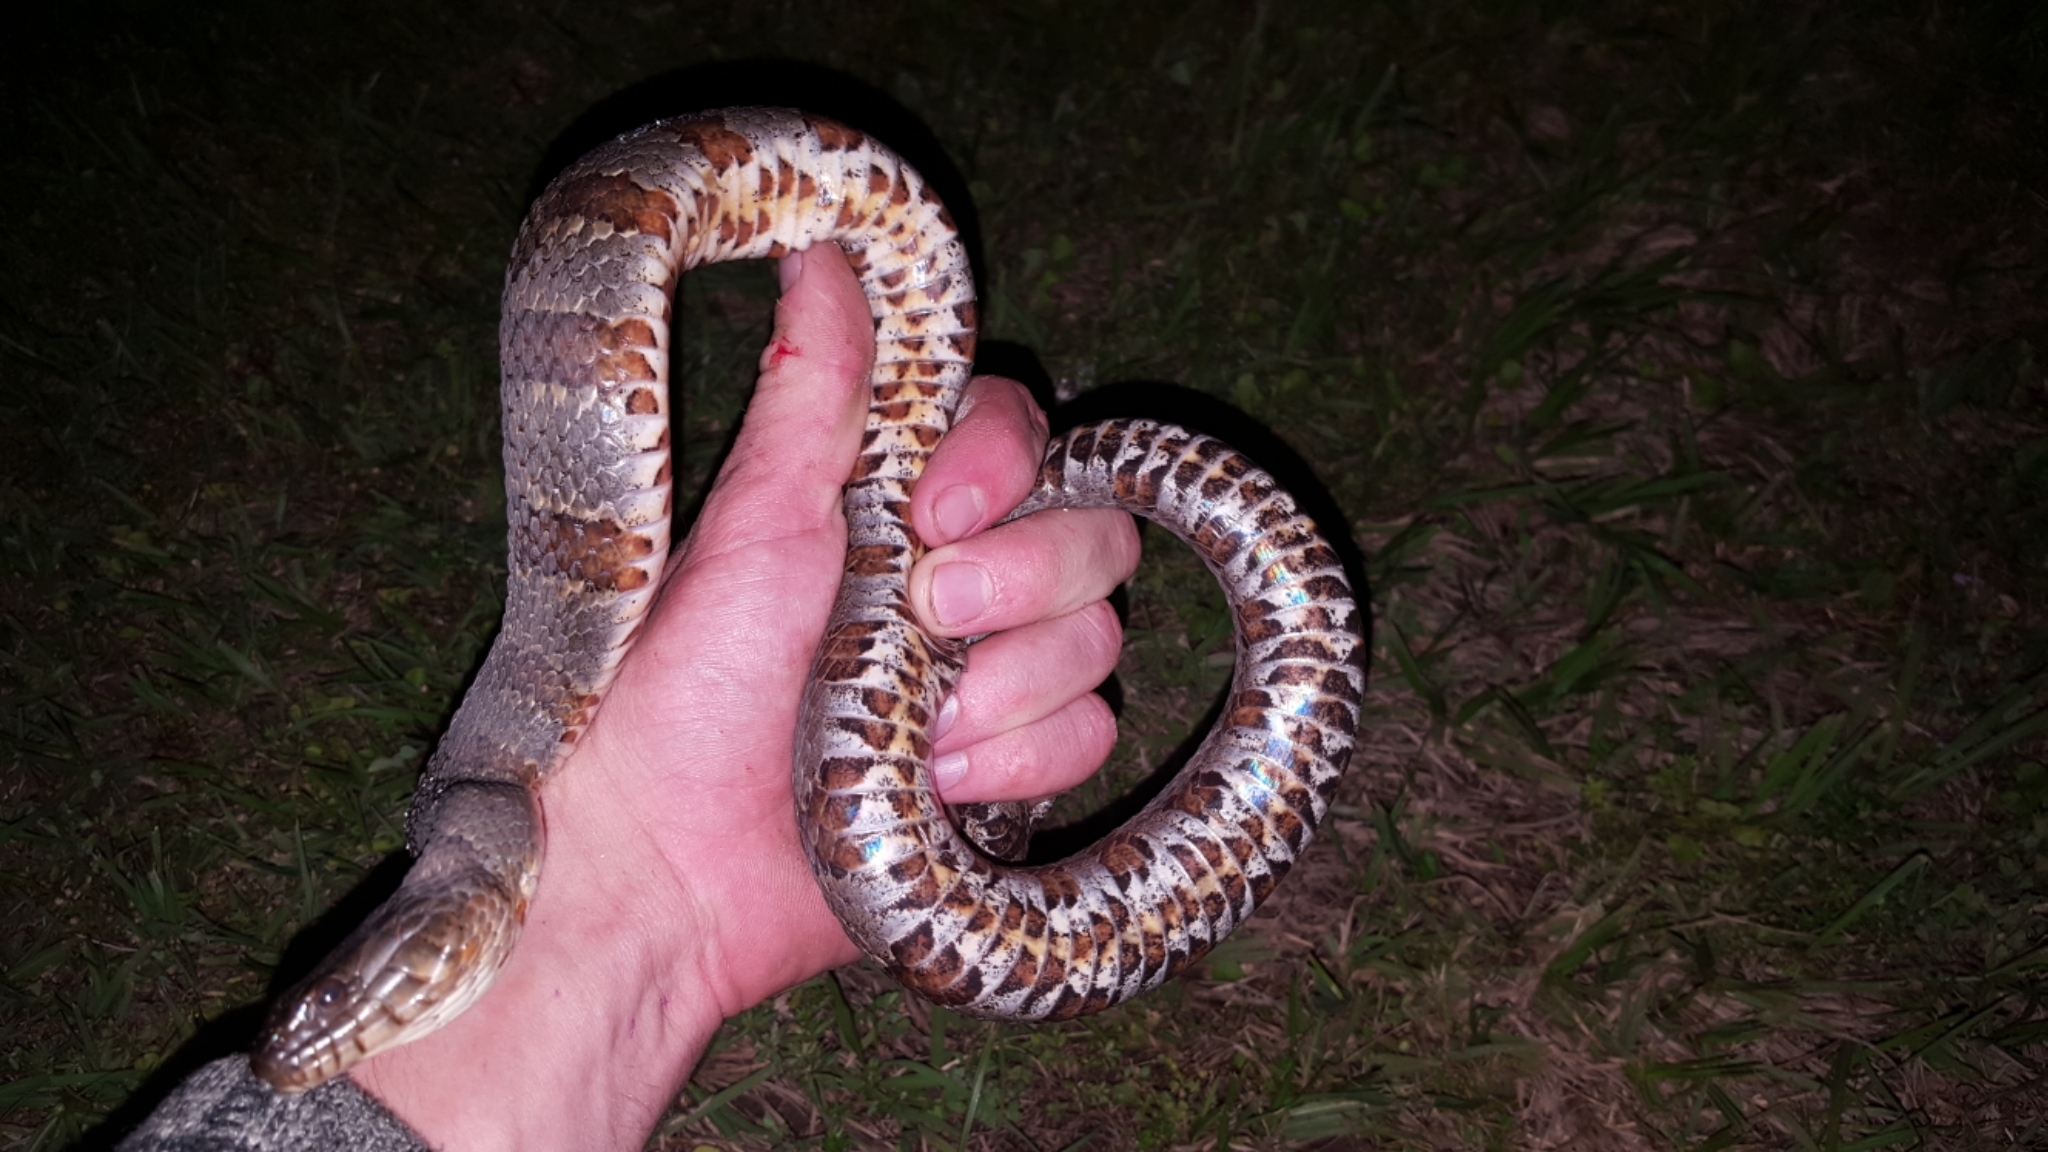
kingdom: Animalia
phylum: Chordata
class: Squamata
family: Colubridae
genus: Nerodia
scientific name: Nerodia sipedon
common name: Northern water snake
